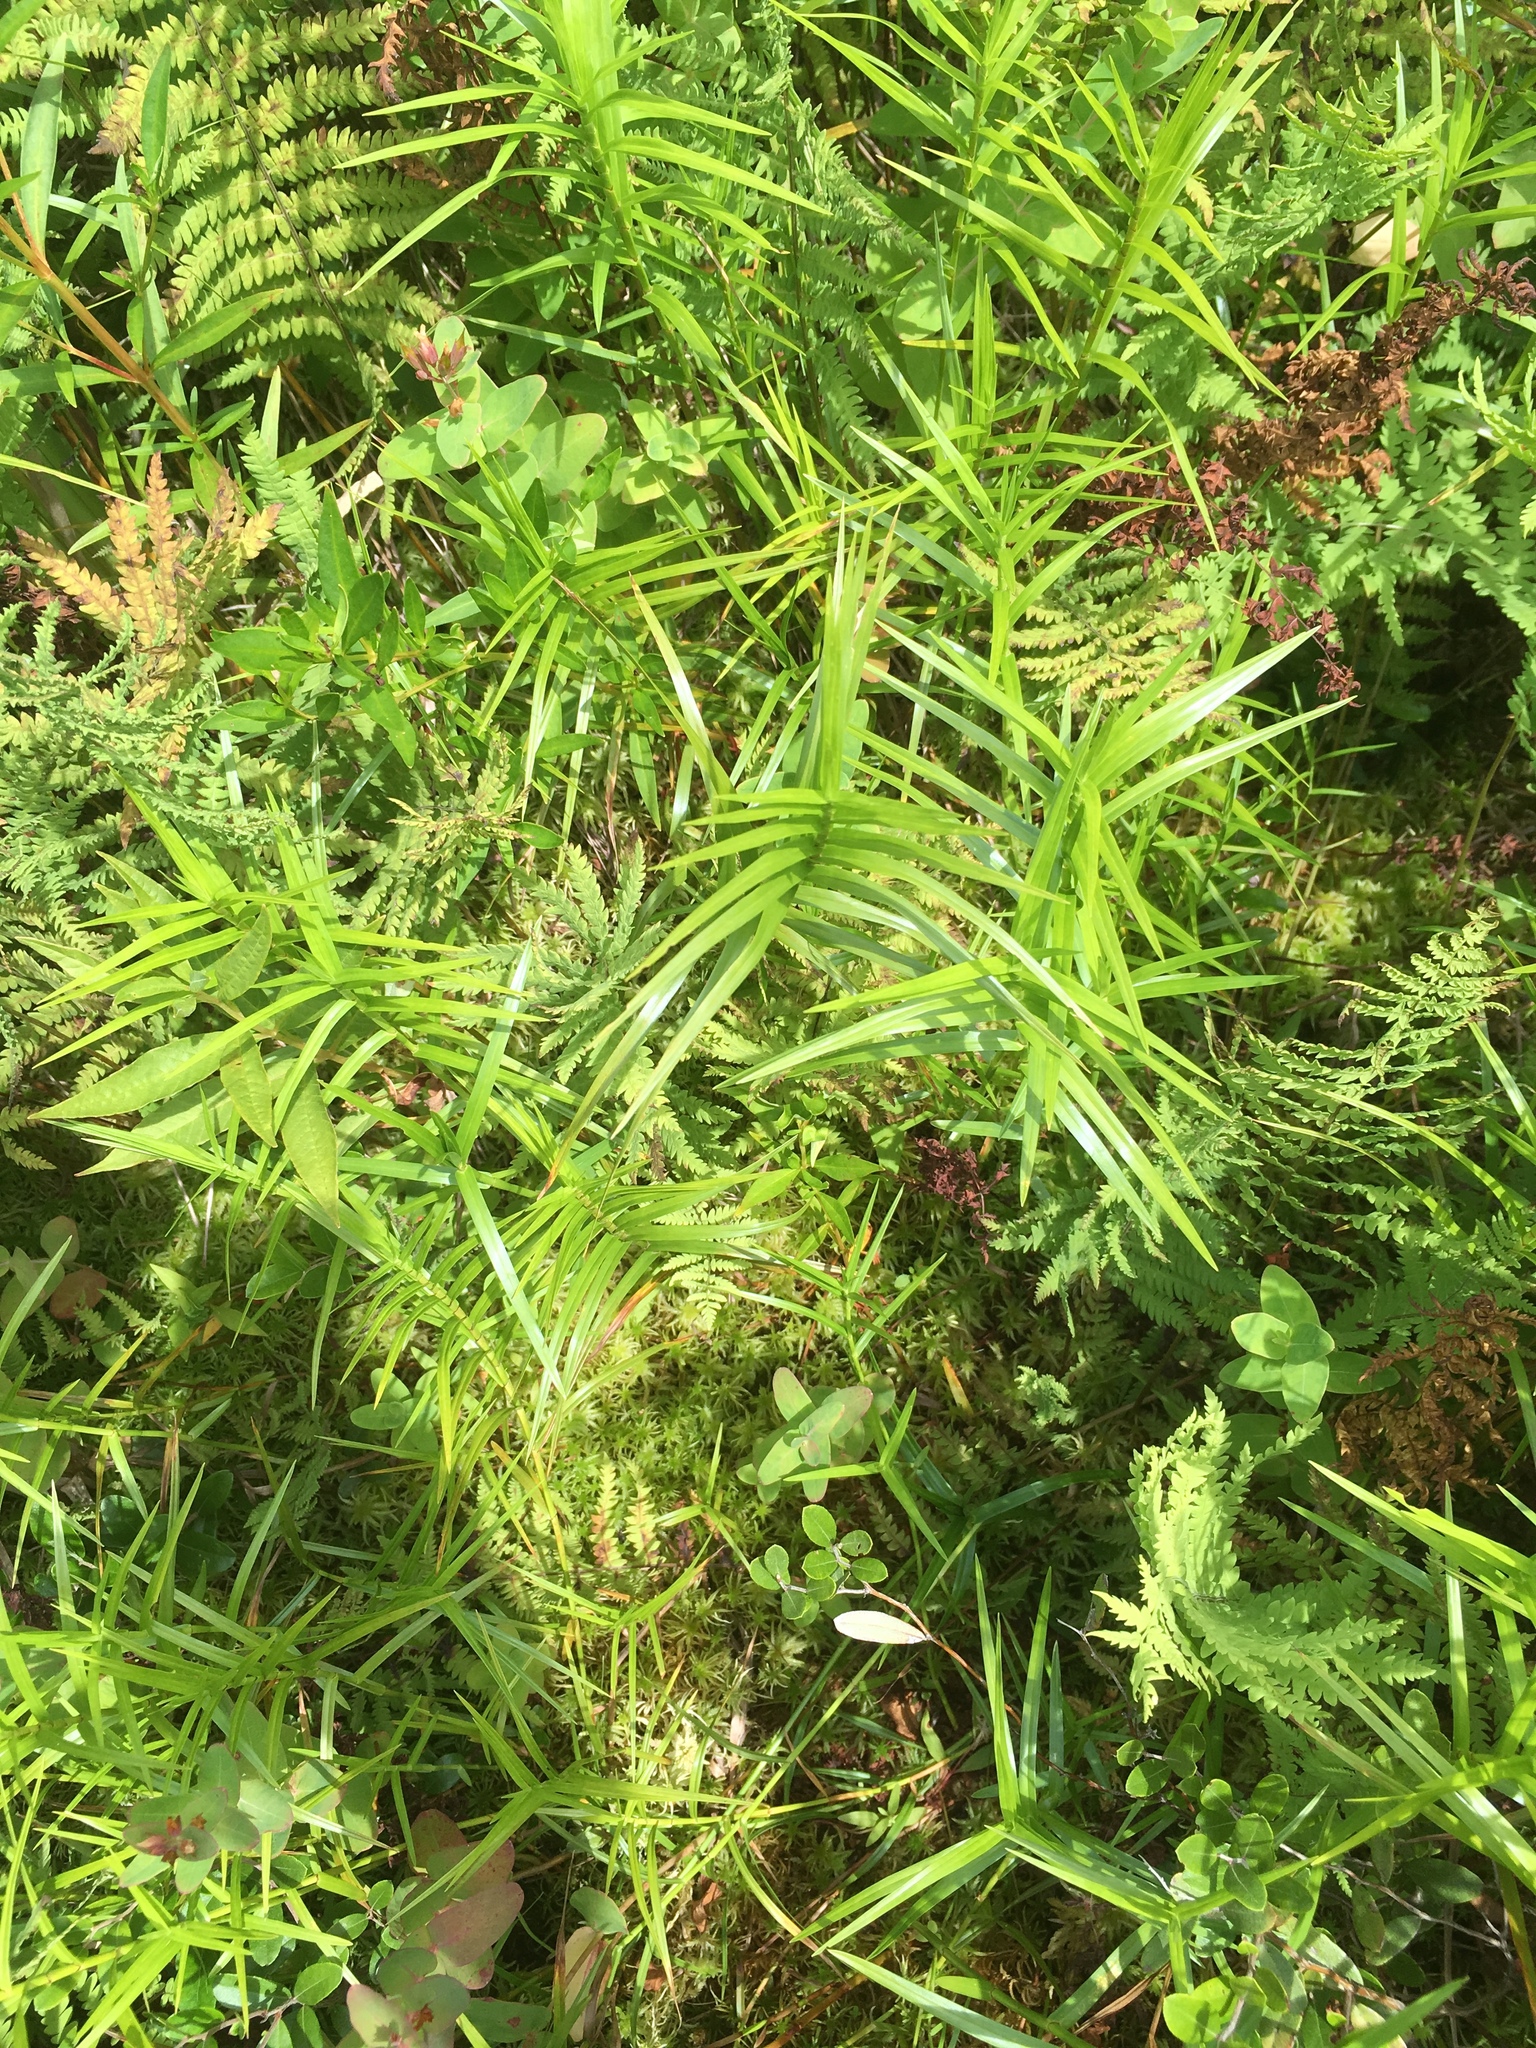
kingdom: Plantae
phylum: Tracheophyta
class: Liliopsida
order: Poales
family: Cyperaceae
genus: Dulichium
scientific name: Dulichium arundinaceum
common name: Three-way sedge
